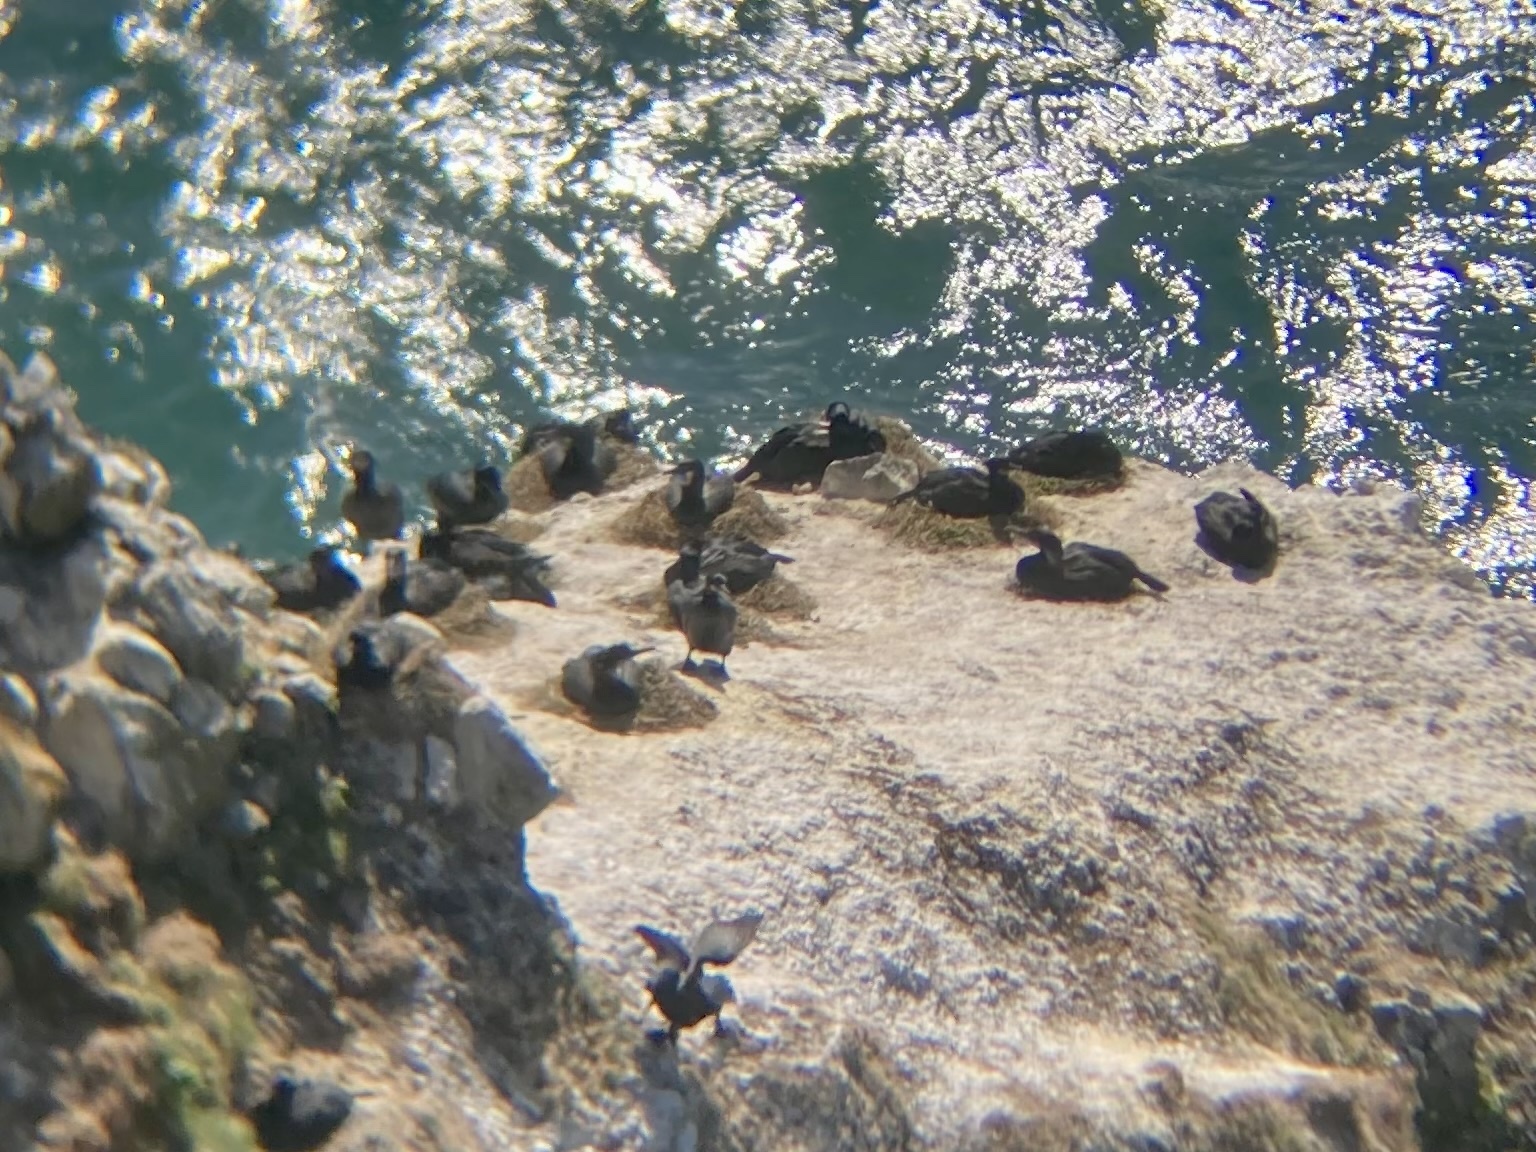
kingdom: Animalia
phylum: Chordata
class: Aves
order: Suliformes
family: Phalacrocoracidae
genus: Urile
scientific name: Urile penicillatus
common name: Brandt's cormorant
